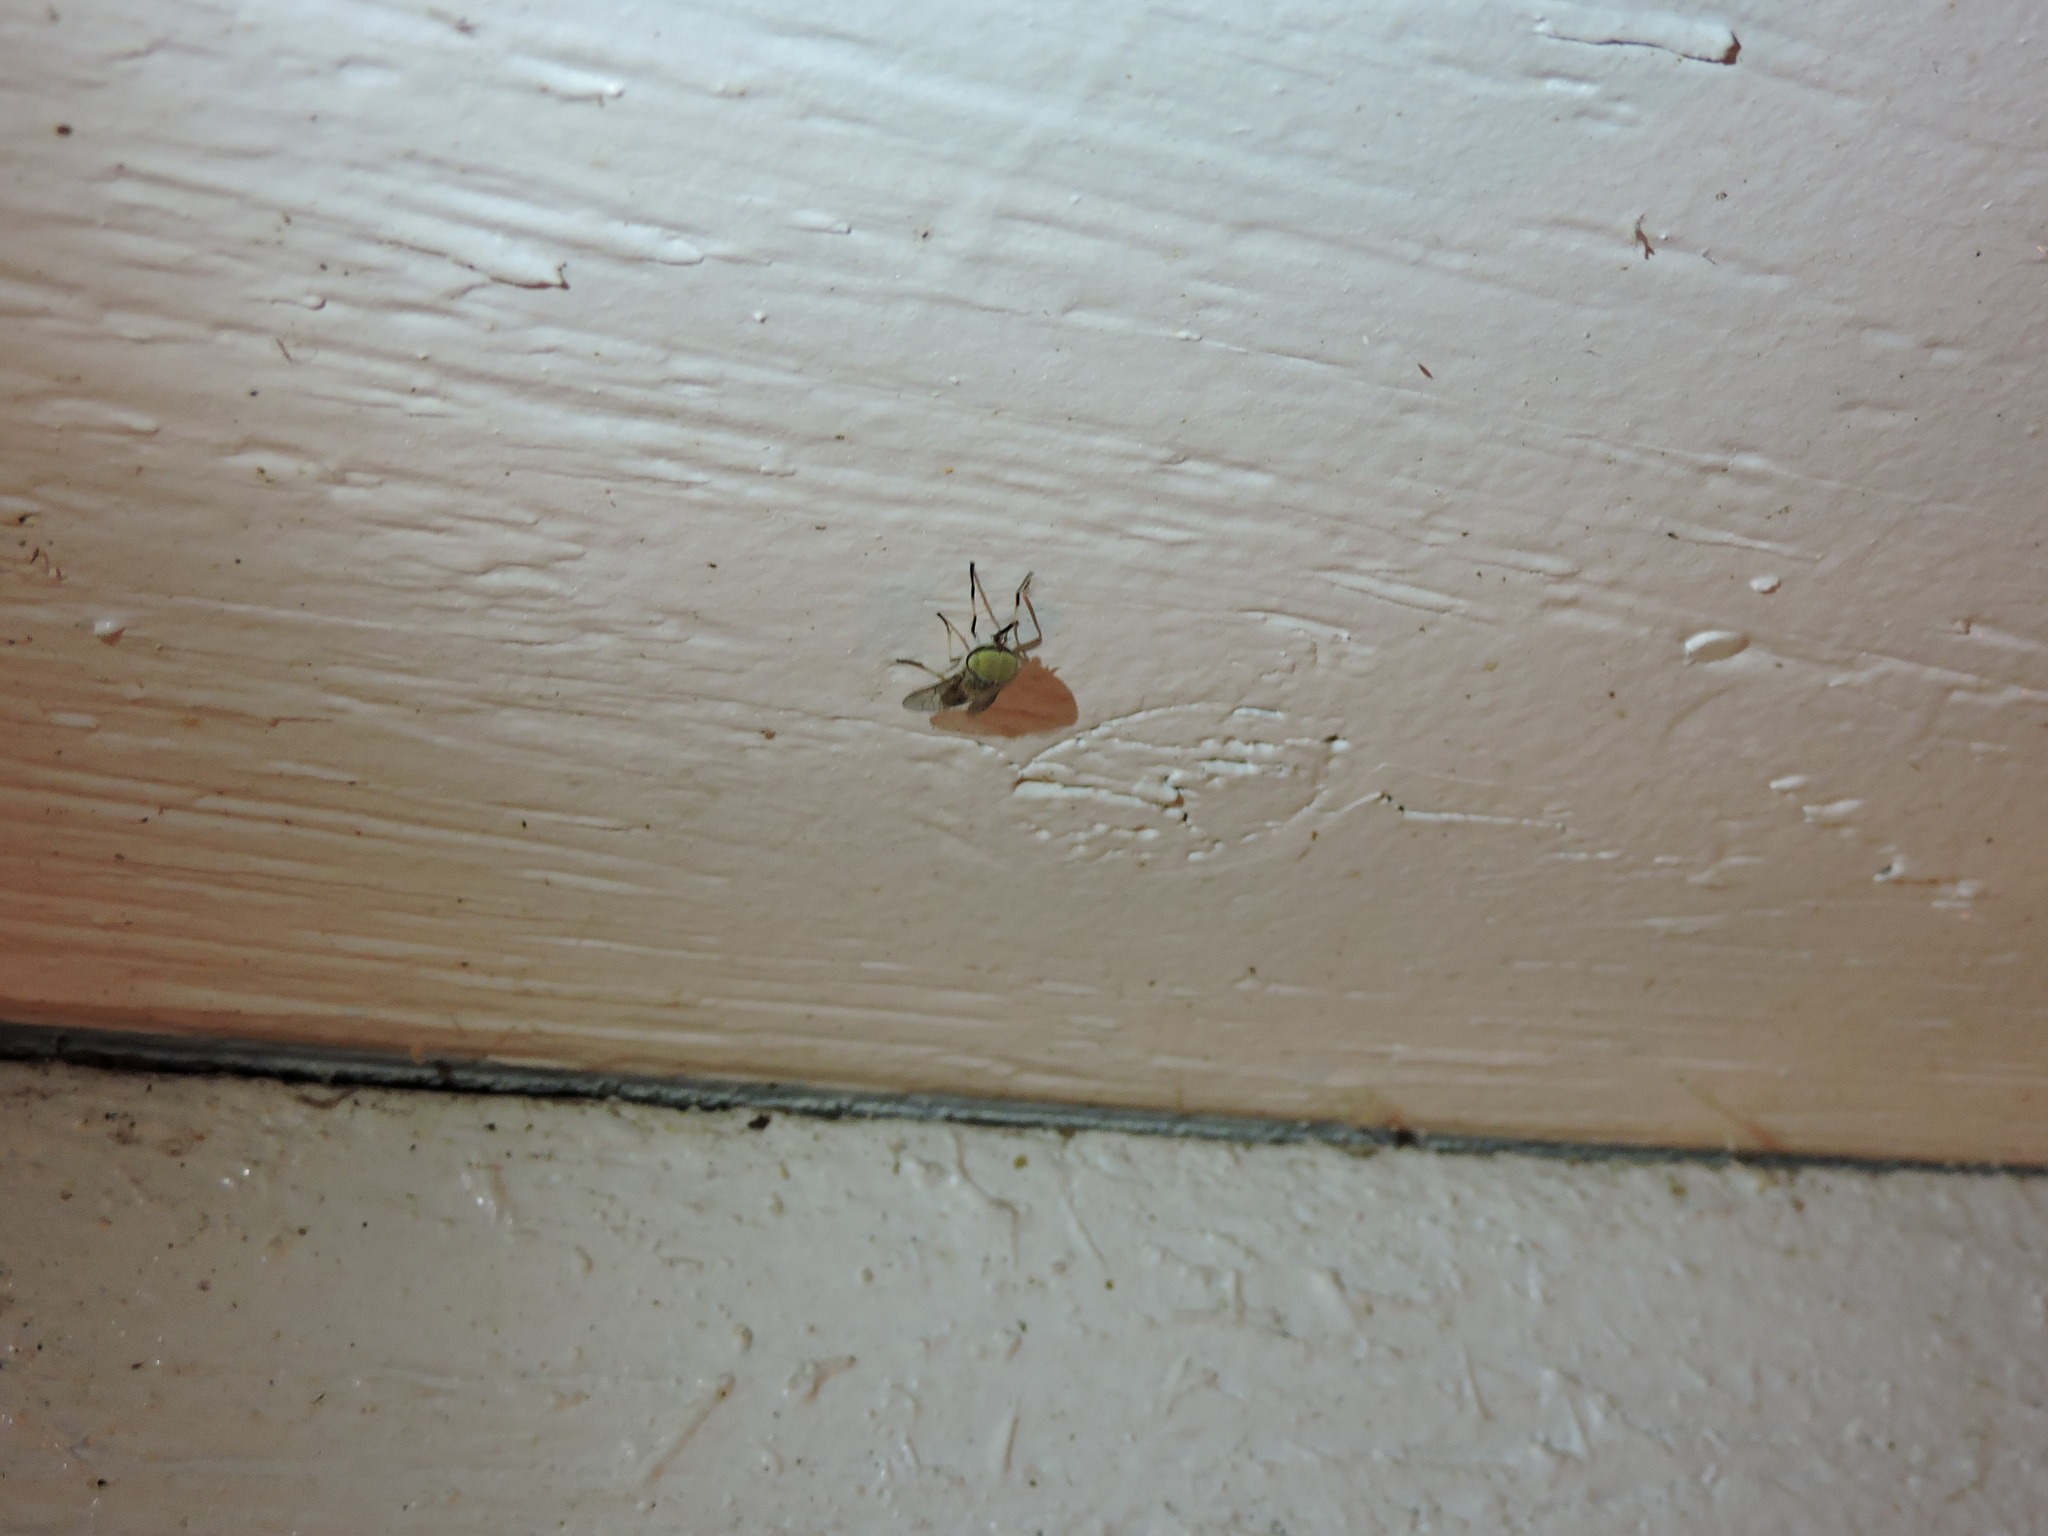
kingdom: Animalia
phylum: Arthropoda
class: Insecta
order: Diptera
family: Tabanidae
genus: Tabanus
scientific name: Tabanus lineola
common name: Striped horse fly
